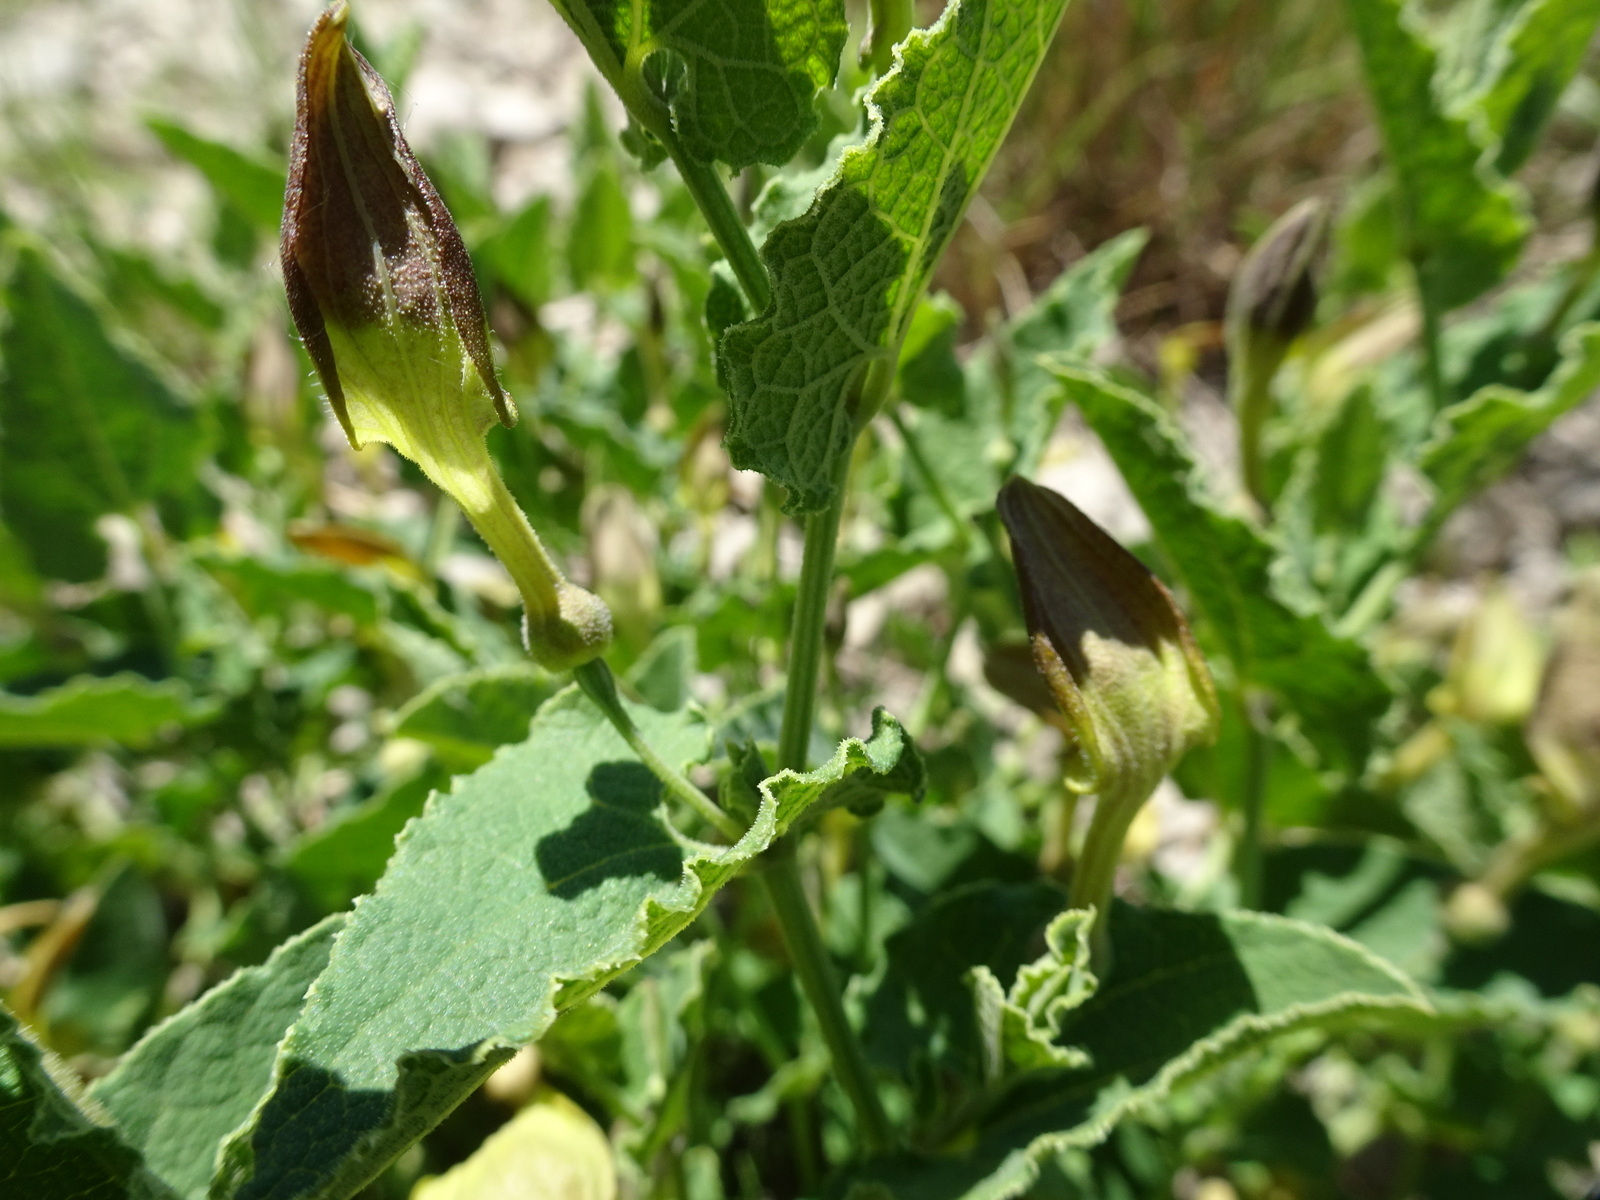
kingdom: Plantae
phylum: Tracheophyta
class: Magnoliopsida
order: Piperales
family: Aristolochiaceae
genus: Aristolochia
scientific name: Aristolochia pistolochia
